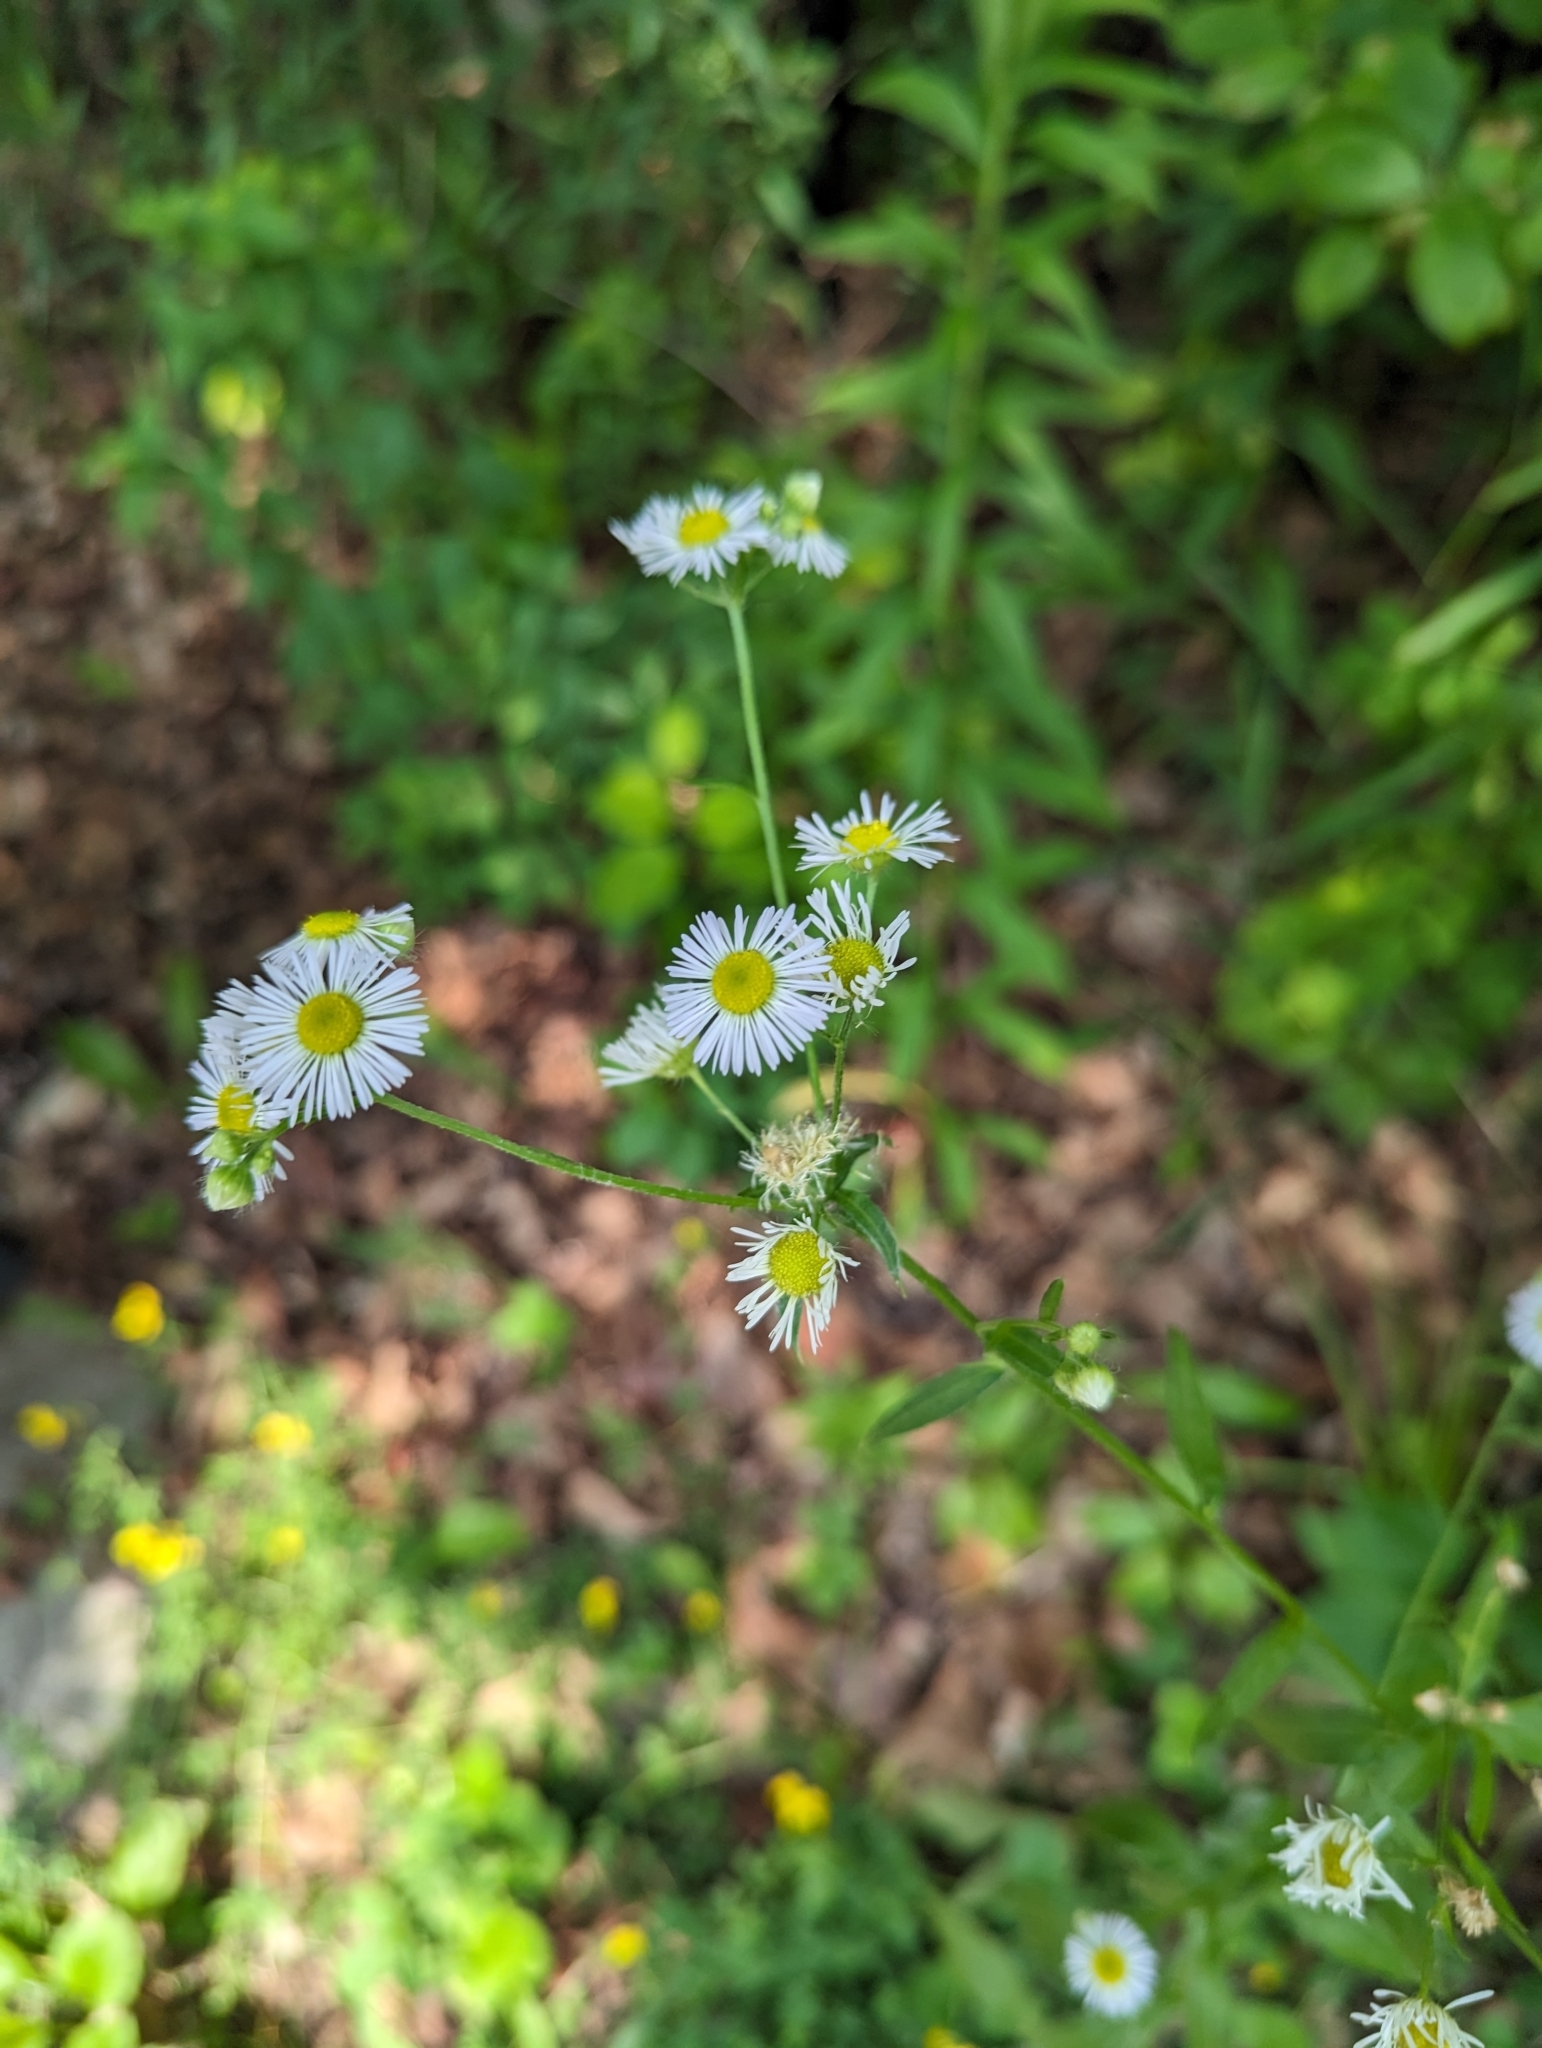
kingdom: Plantae
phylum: Tracheophyta
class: Magnoliopsida
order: Asterales
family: Asteraceae
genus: Erigeron
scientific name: Erigeron annuus
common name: Tall fleabane
